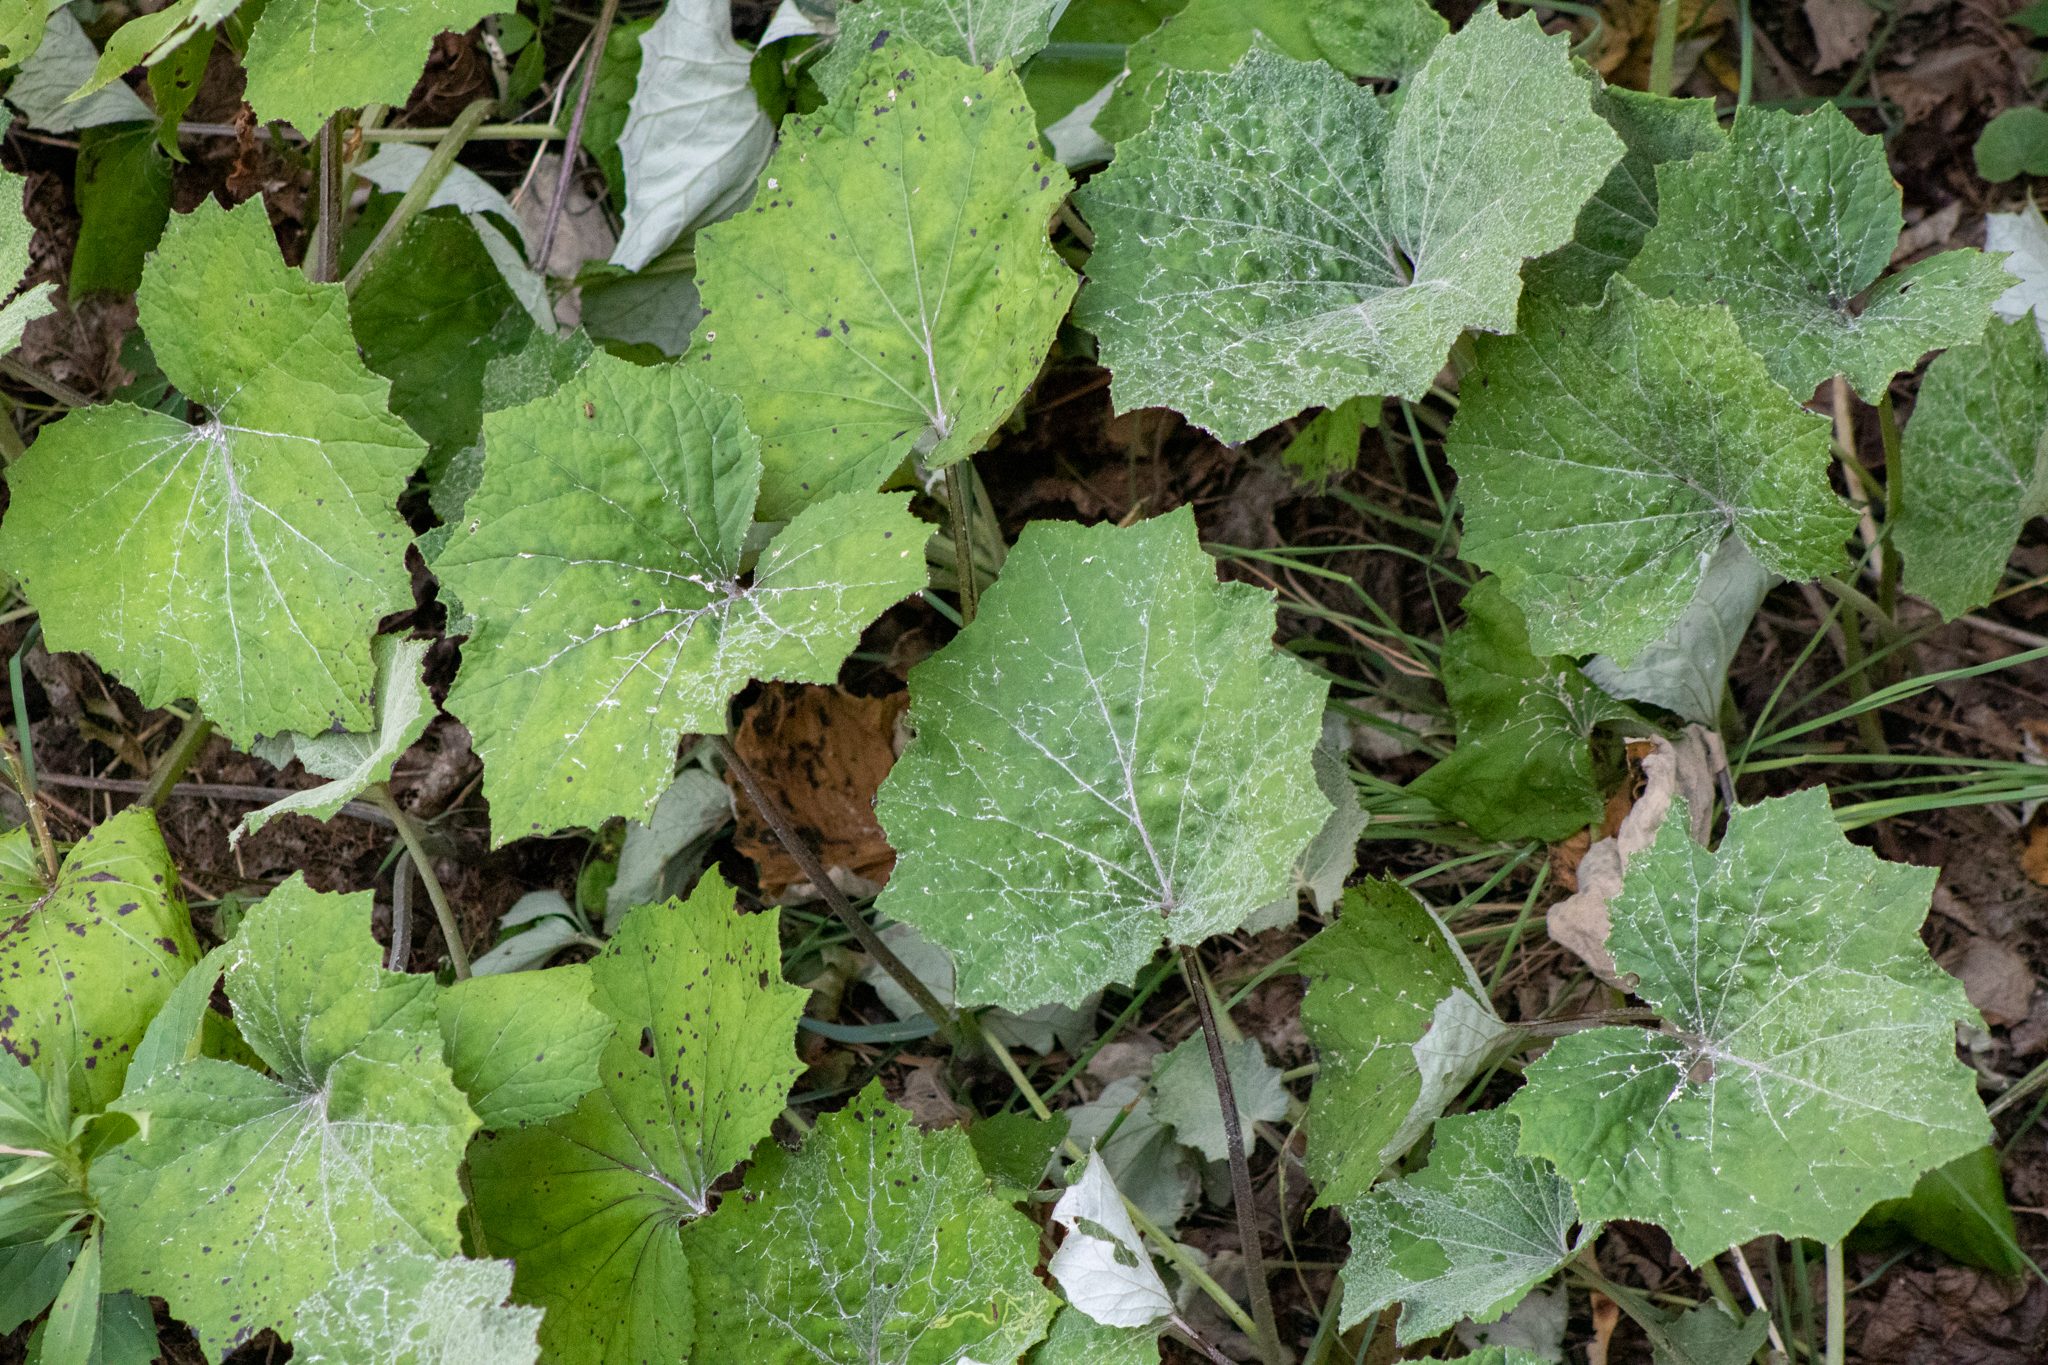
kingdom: Plantae
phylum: Tracheophyta
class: Magnoliopsida
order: Asterales
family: Asteraceae
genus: Tussilago
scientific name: Tussilago farfara
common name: Coltsfoot
